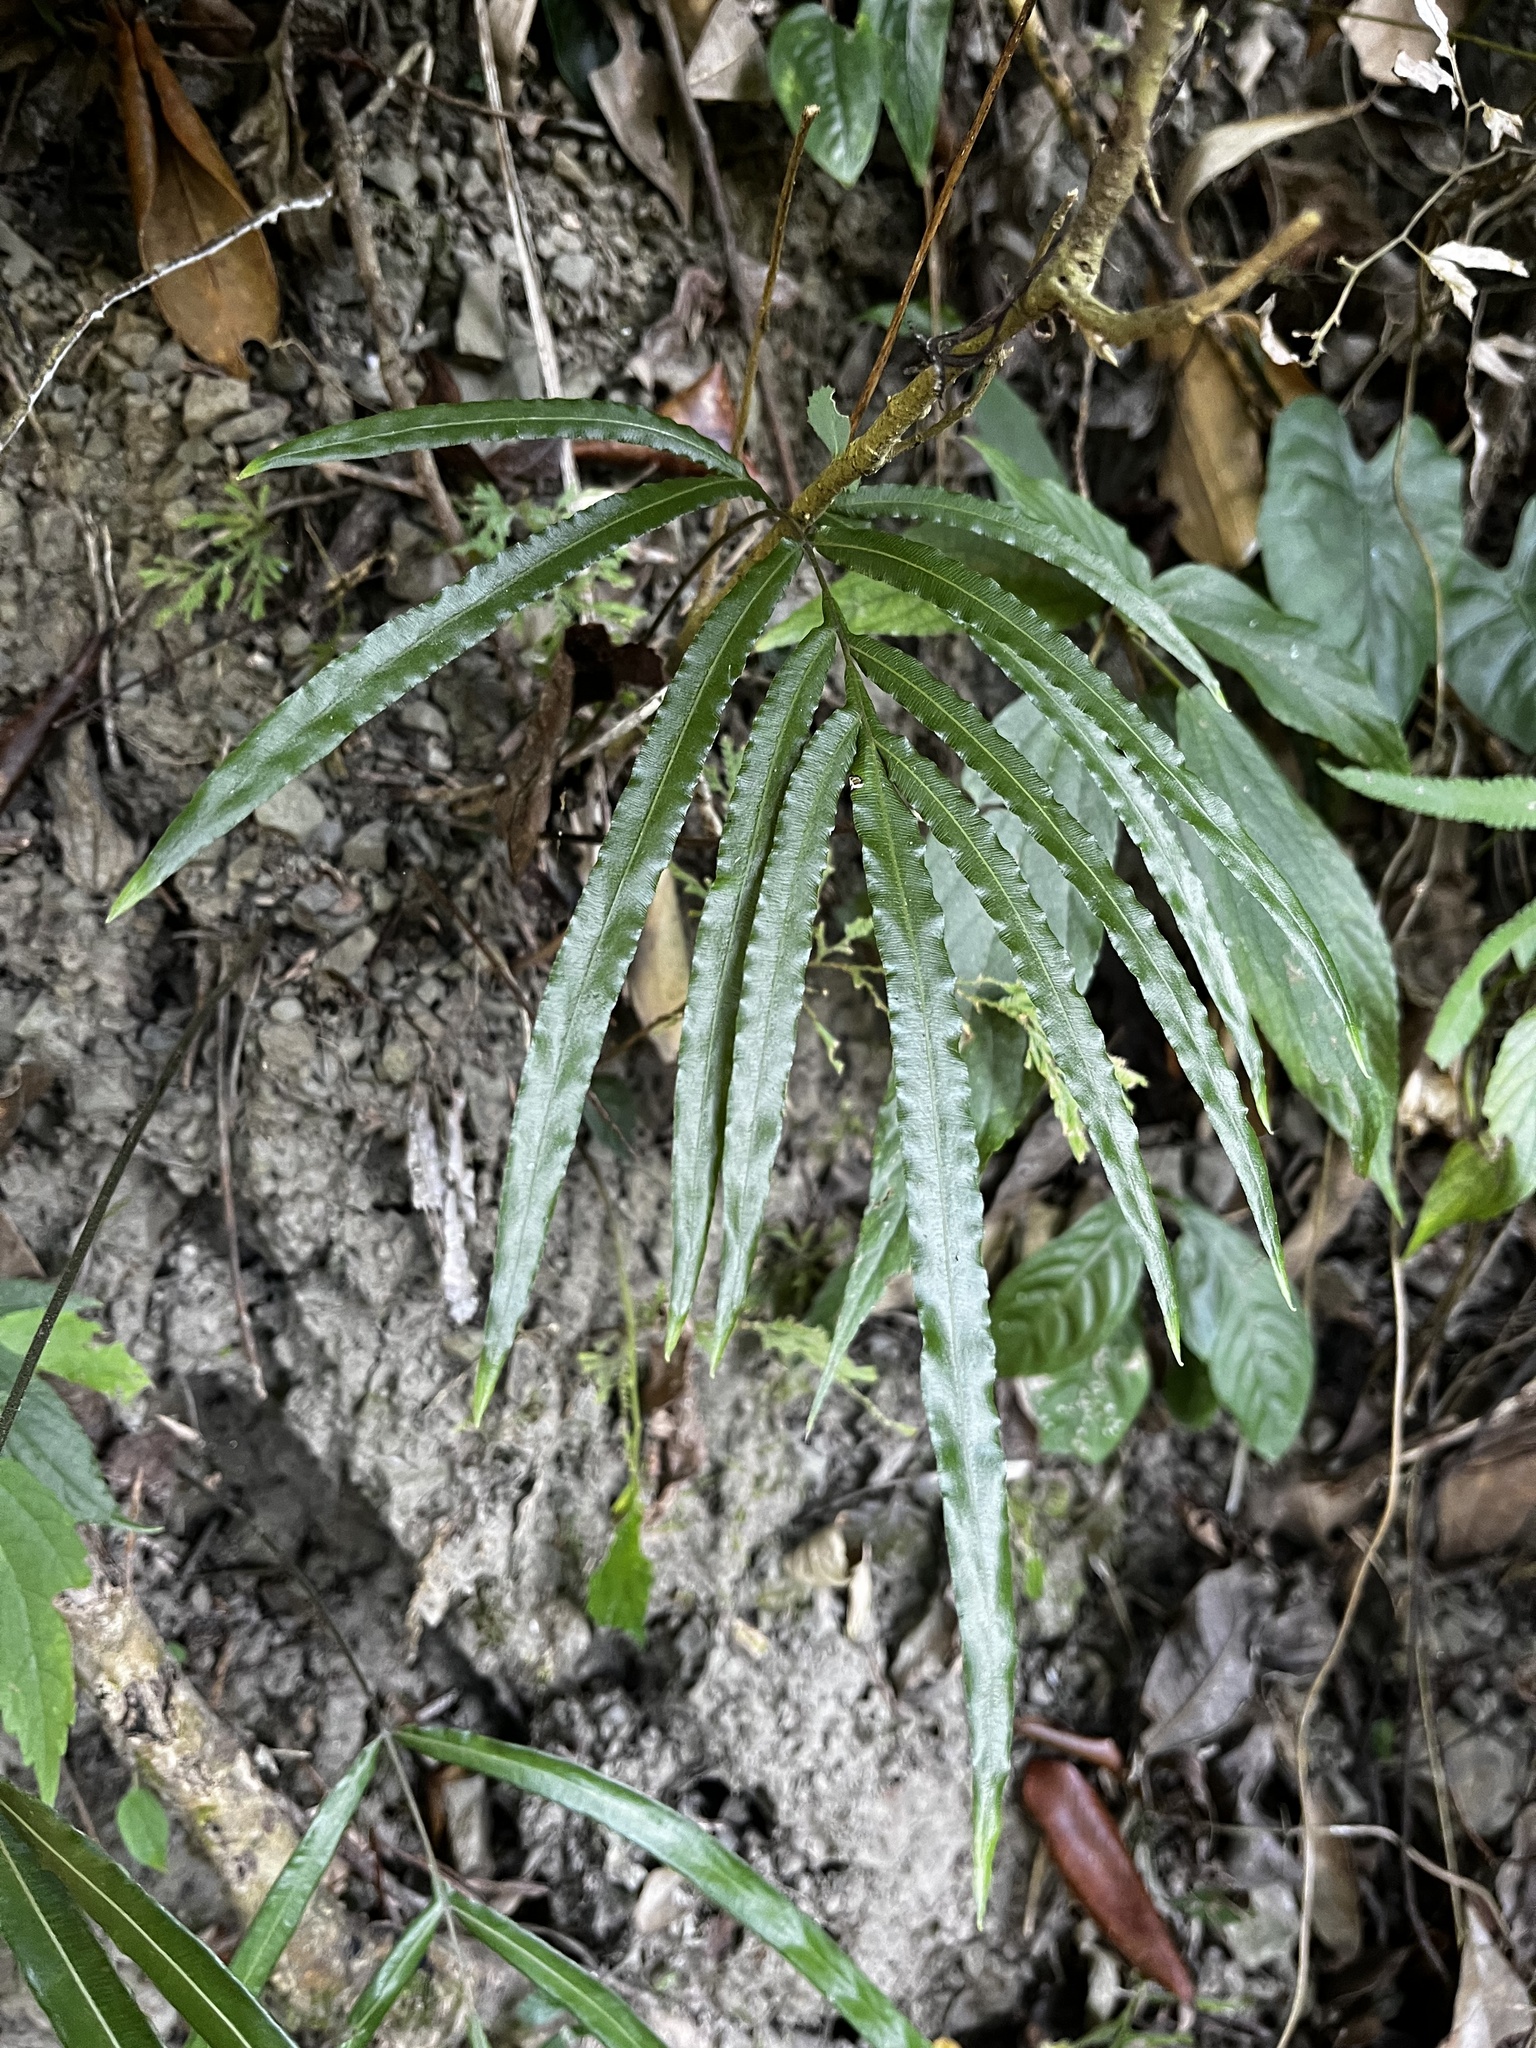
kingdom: Plantae
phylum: Tracheophyta
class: Polypodiopsida
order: Polypodiales
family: Pteridaceae
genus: Pteris
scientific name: Pteris longipinna
